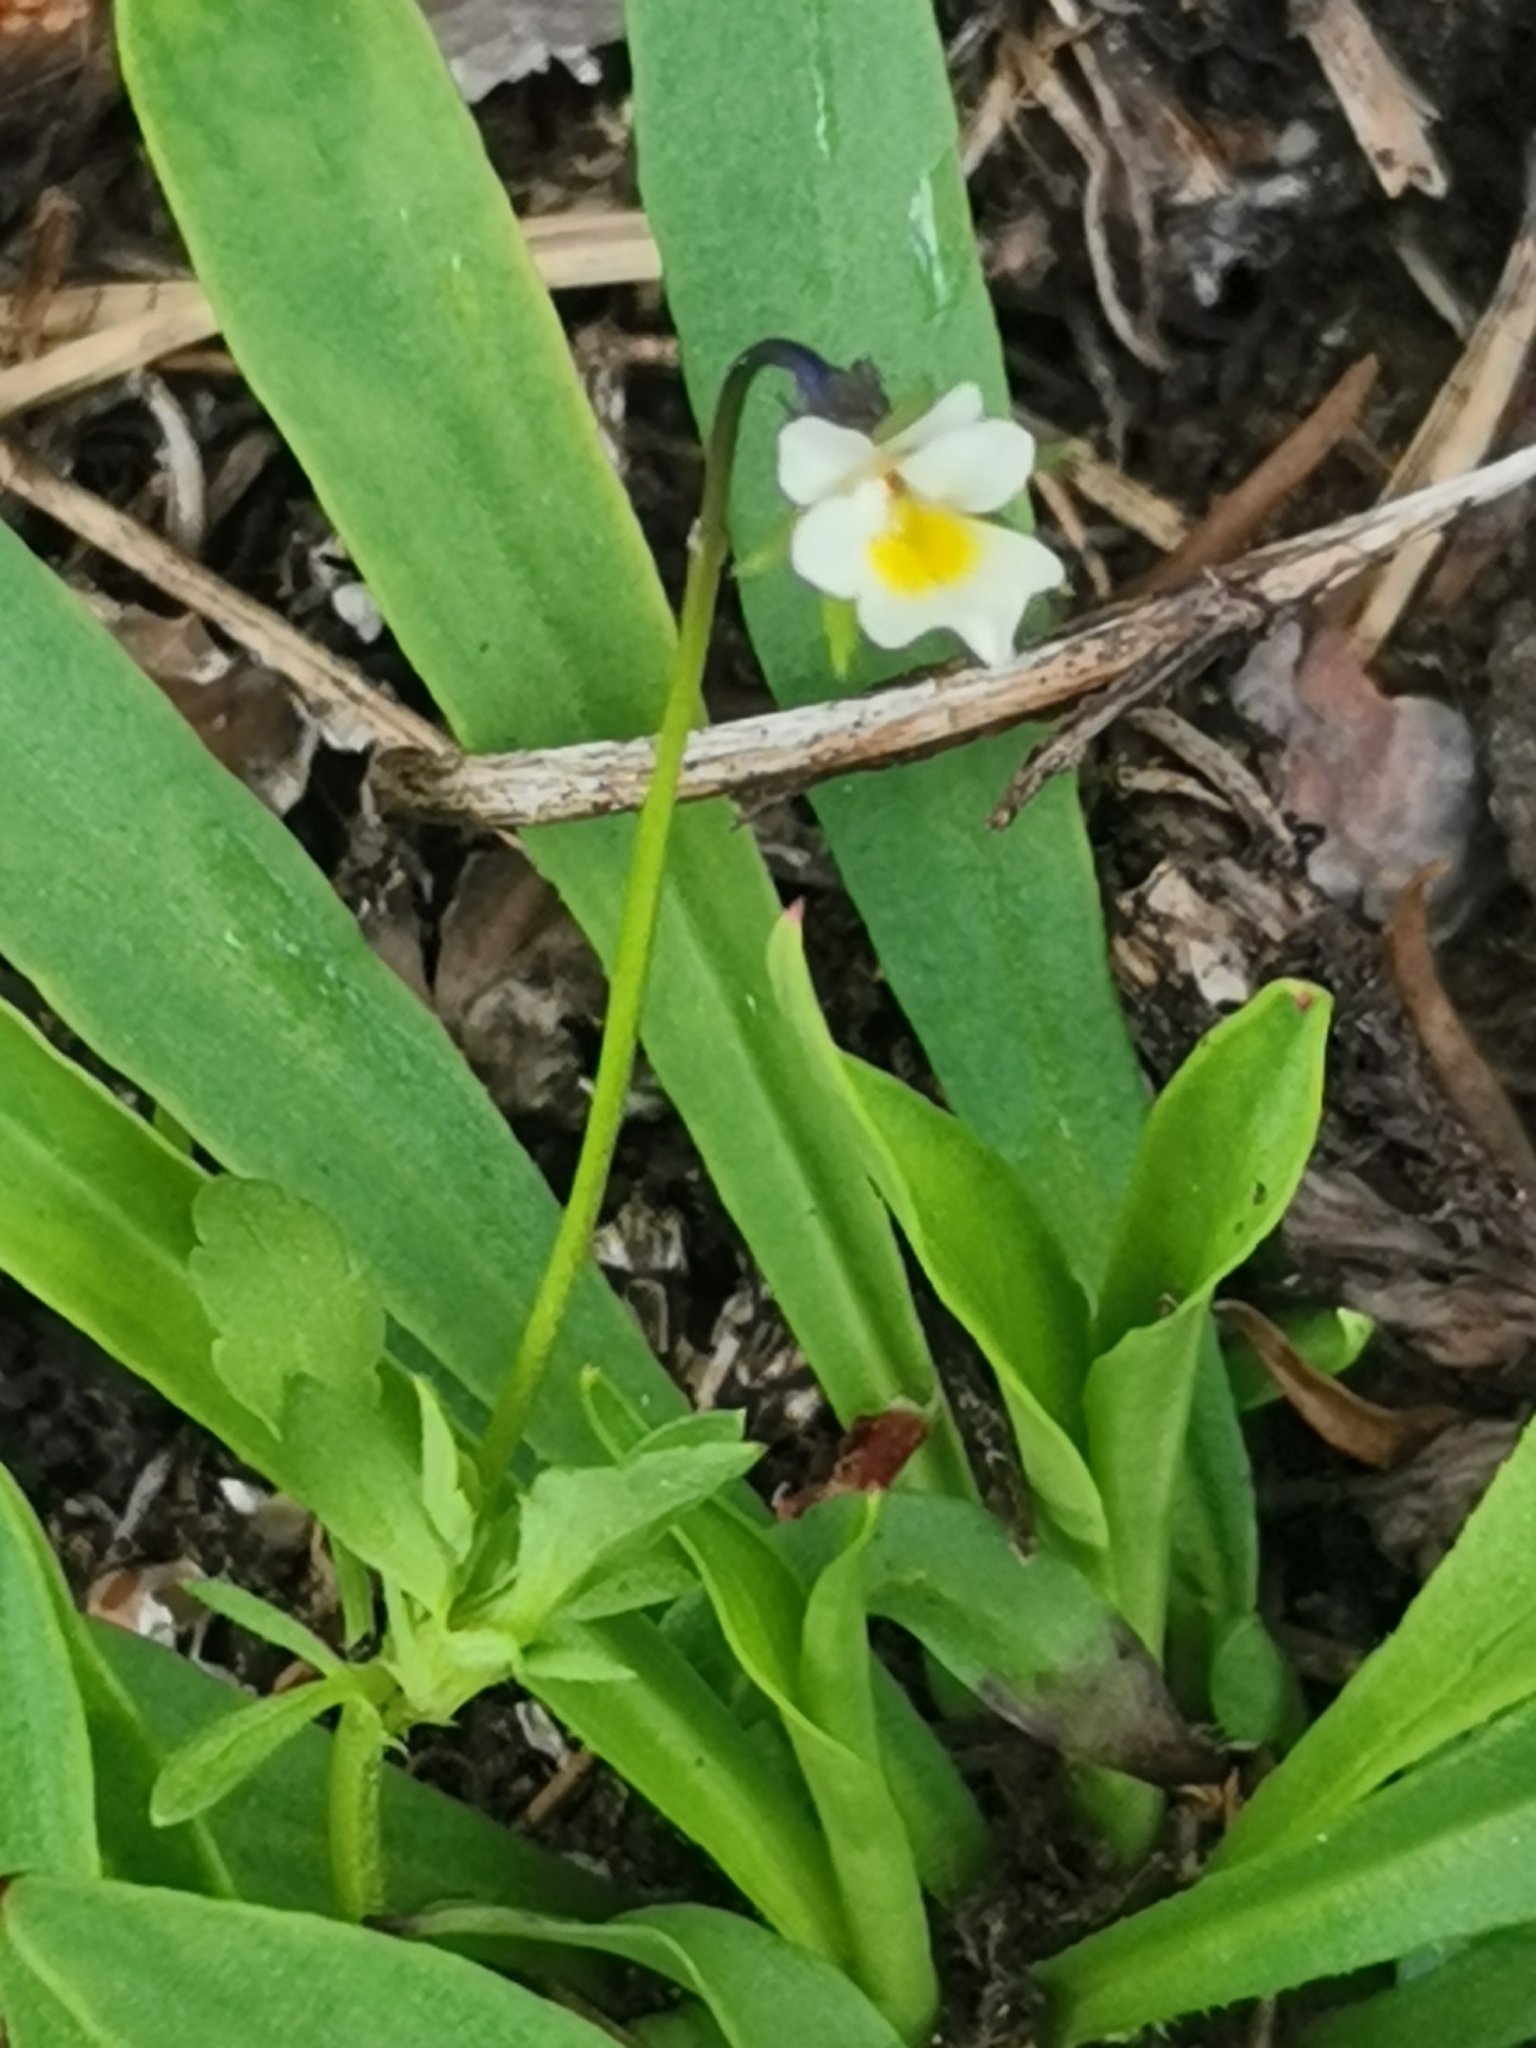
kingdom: Plantae
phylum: Tracheophyta
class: Magnoliopsida
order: Malpighiales
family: Violaceae
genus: Viola
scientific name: Viola arvensis
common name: Field pansy
